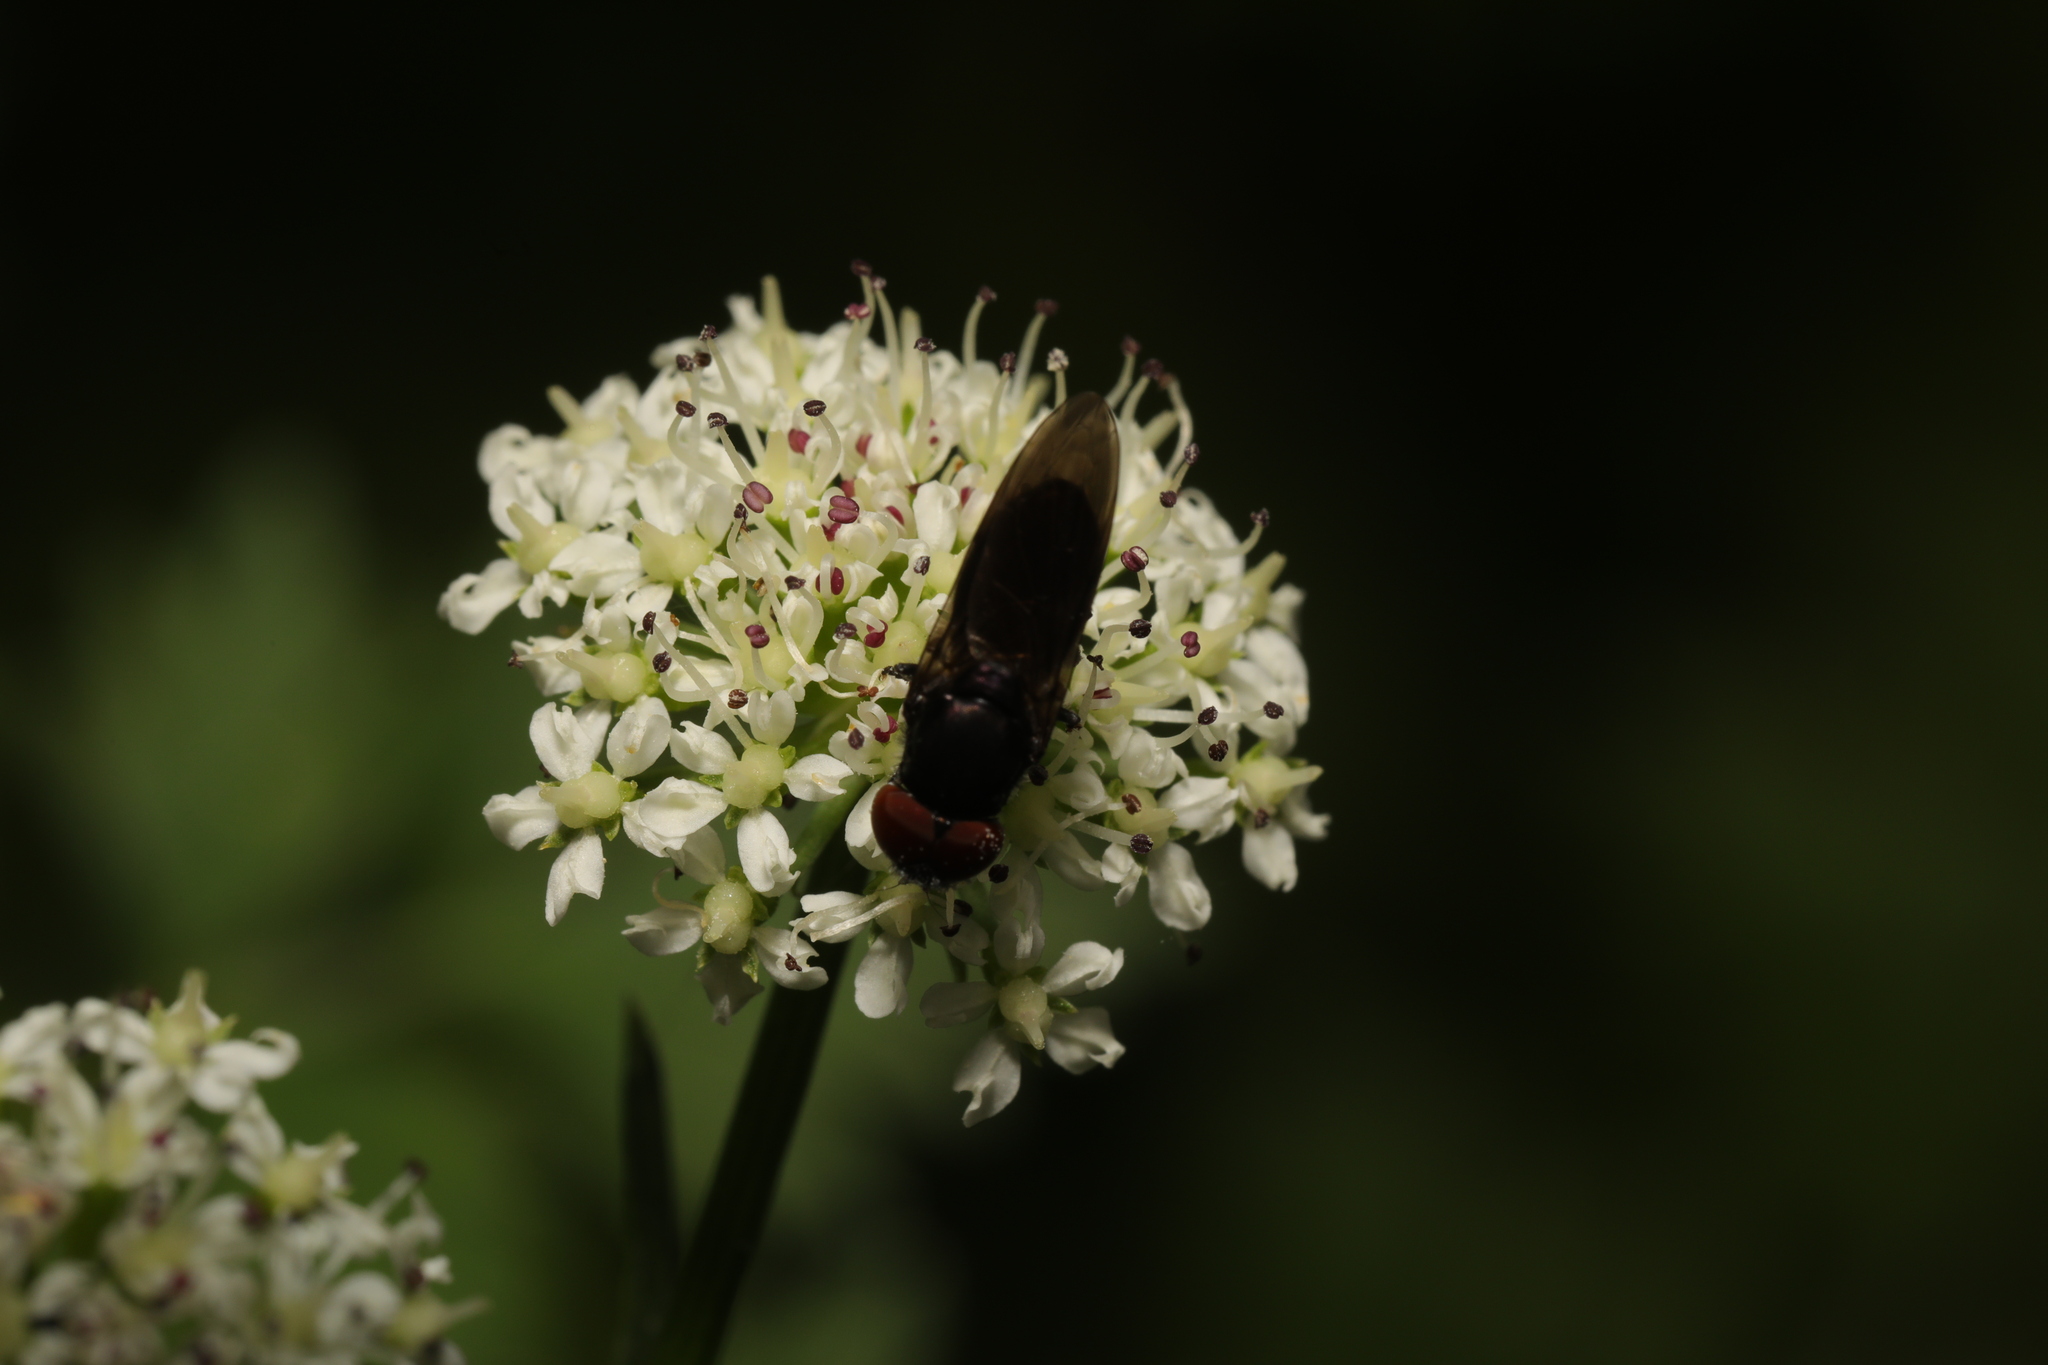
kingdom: Animalia
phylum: Arthropoda
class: Insecta
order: Diptera
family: Syrphidae
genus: Chrysogaster
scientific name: Chrysogaster solstitialis
